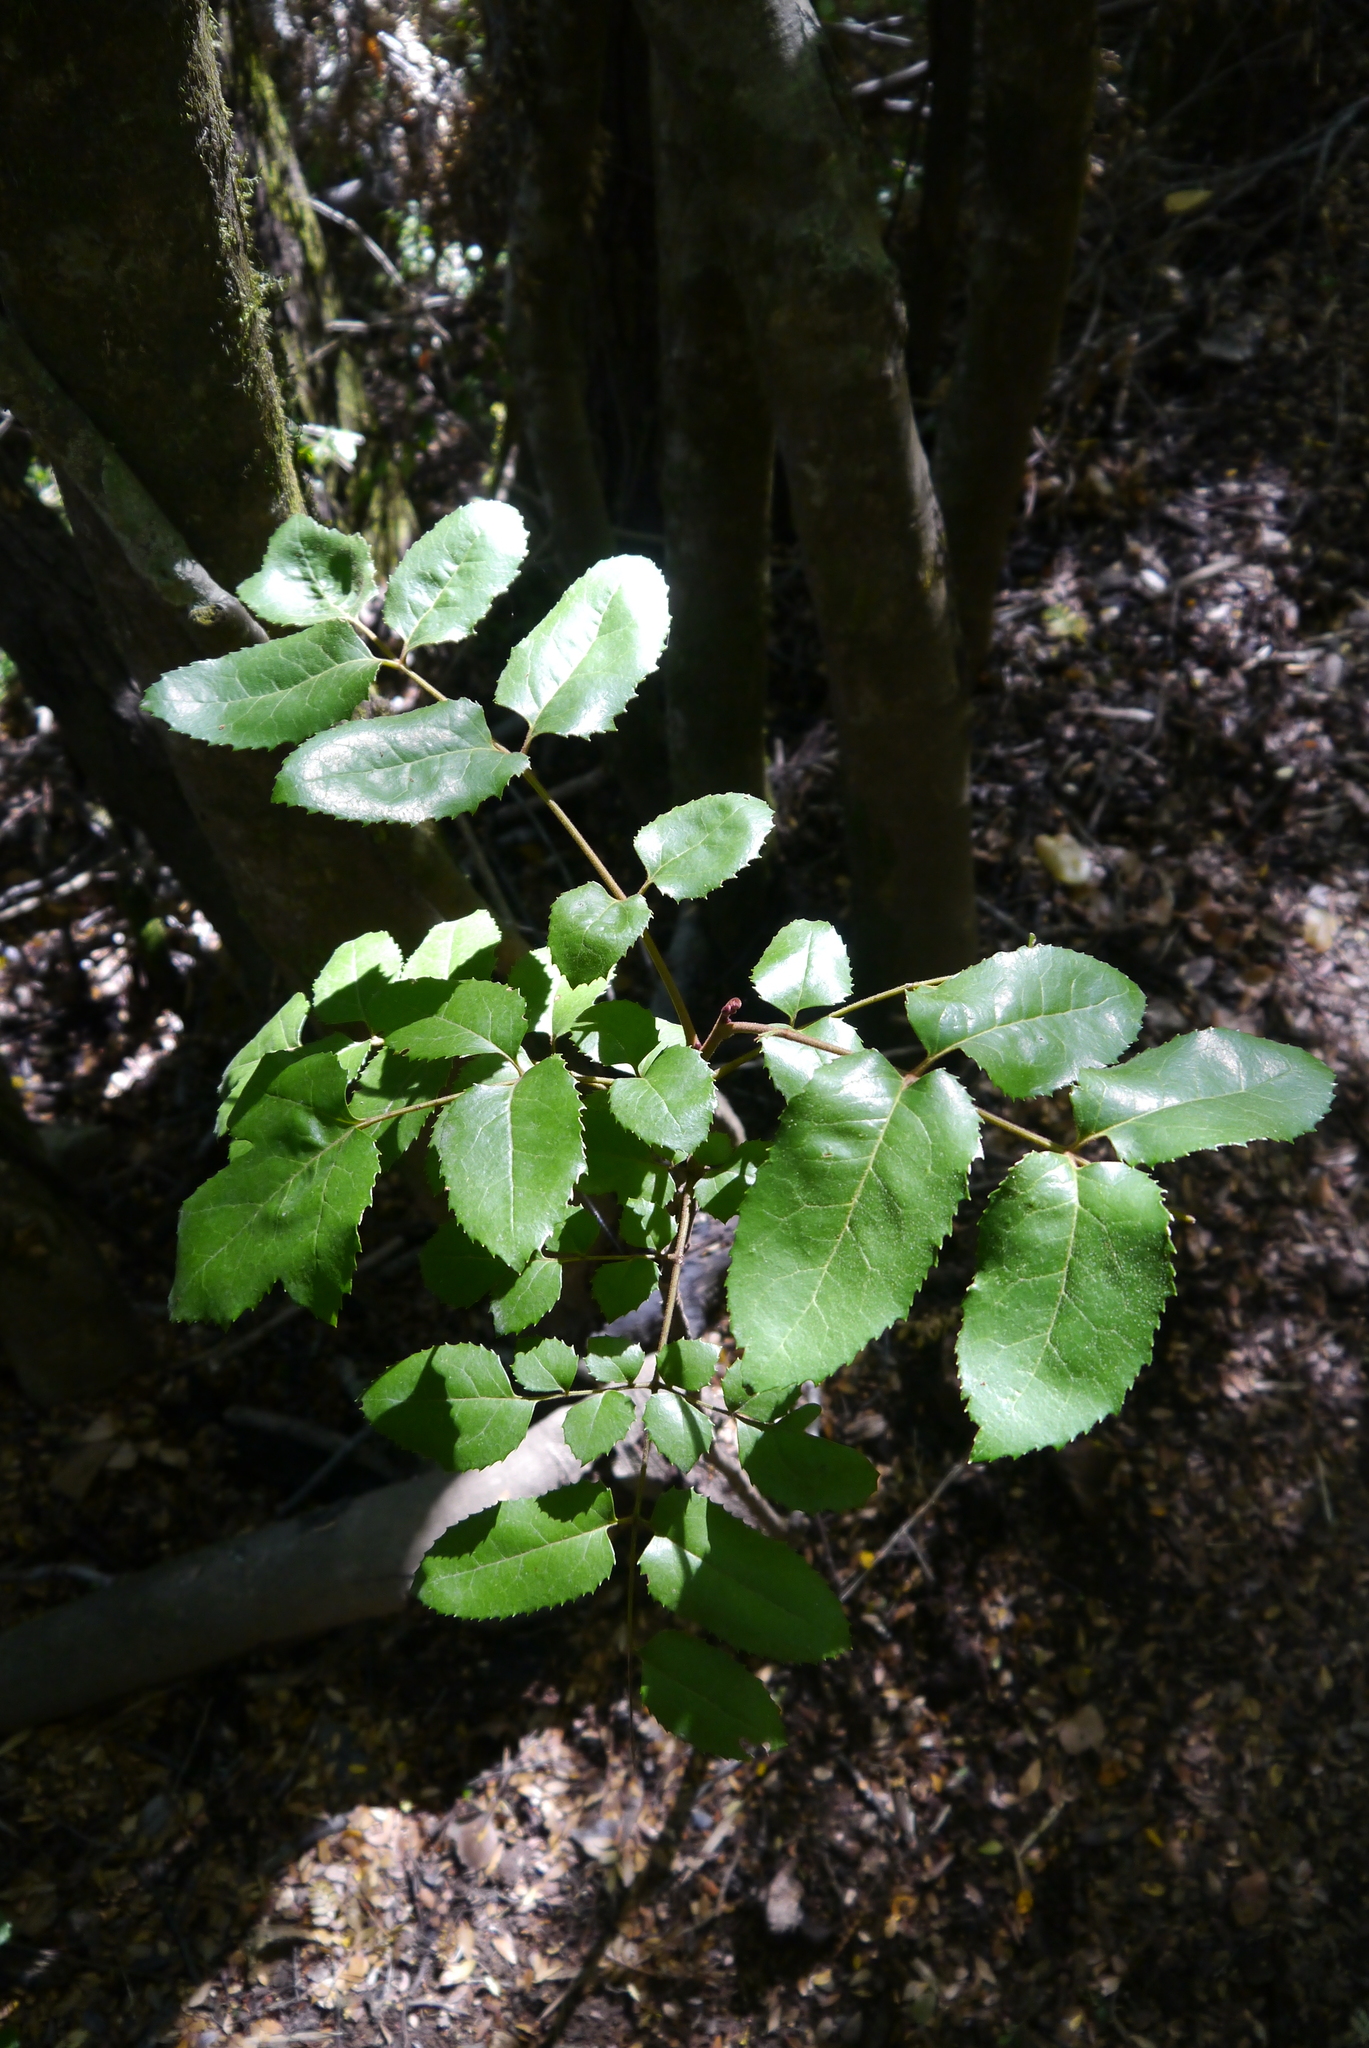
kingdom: Plantae
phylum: Tracheophyta
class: Magnoliopsida
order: Proteales
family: Proteaceae
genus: Gevuina
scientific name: Gevuina avellana
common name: Chilean hazel
